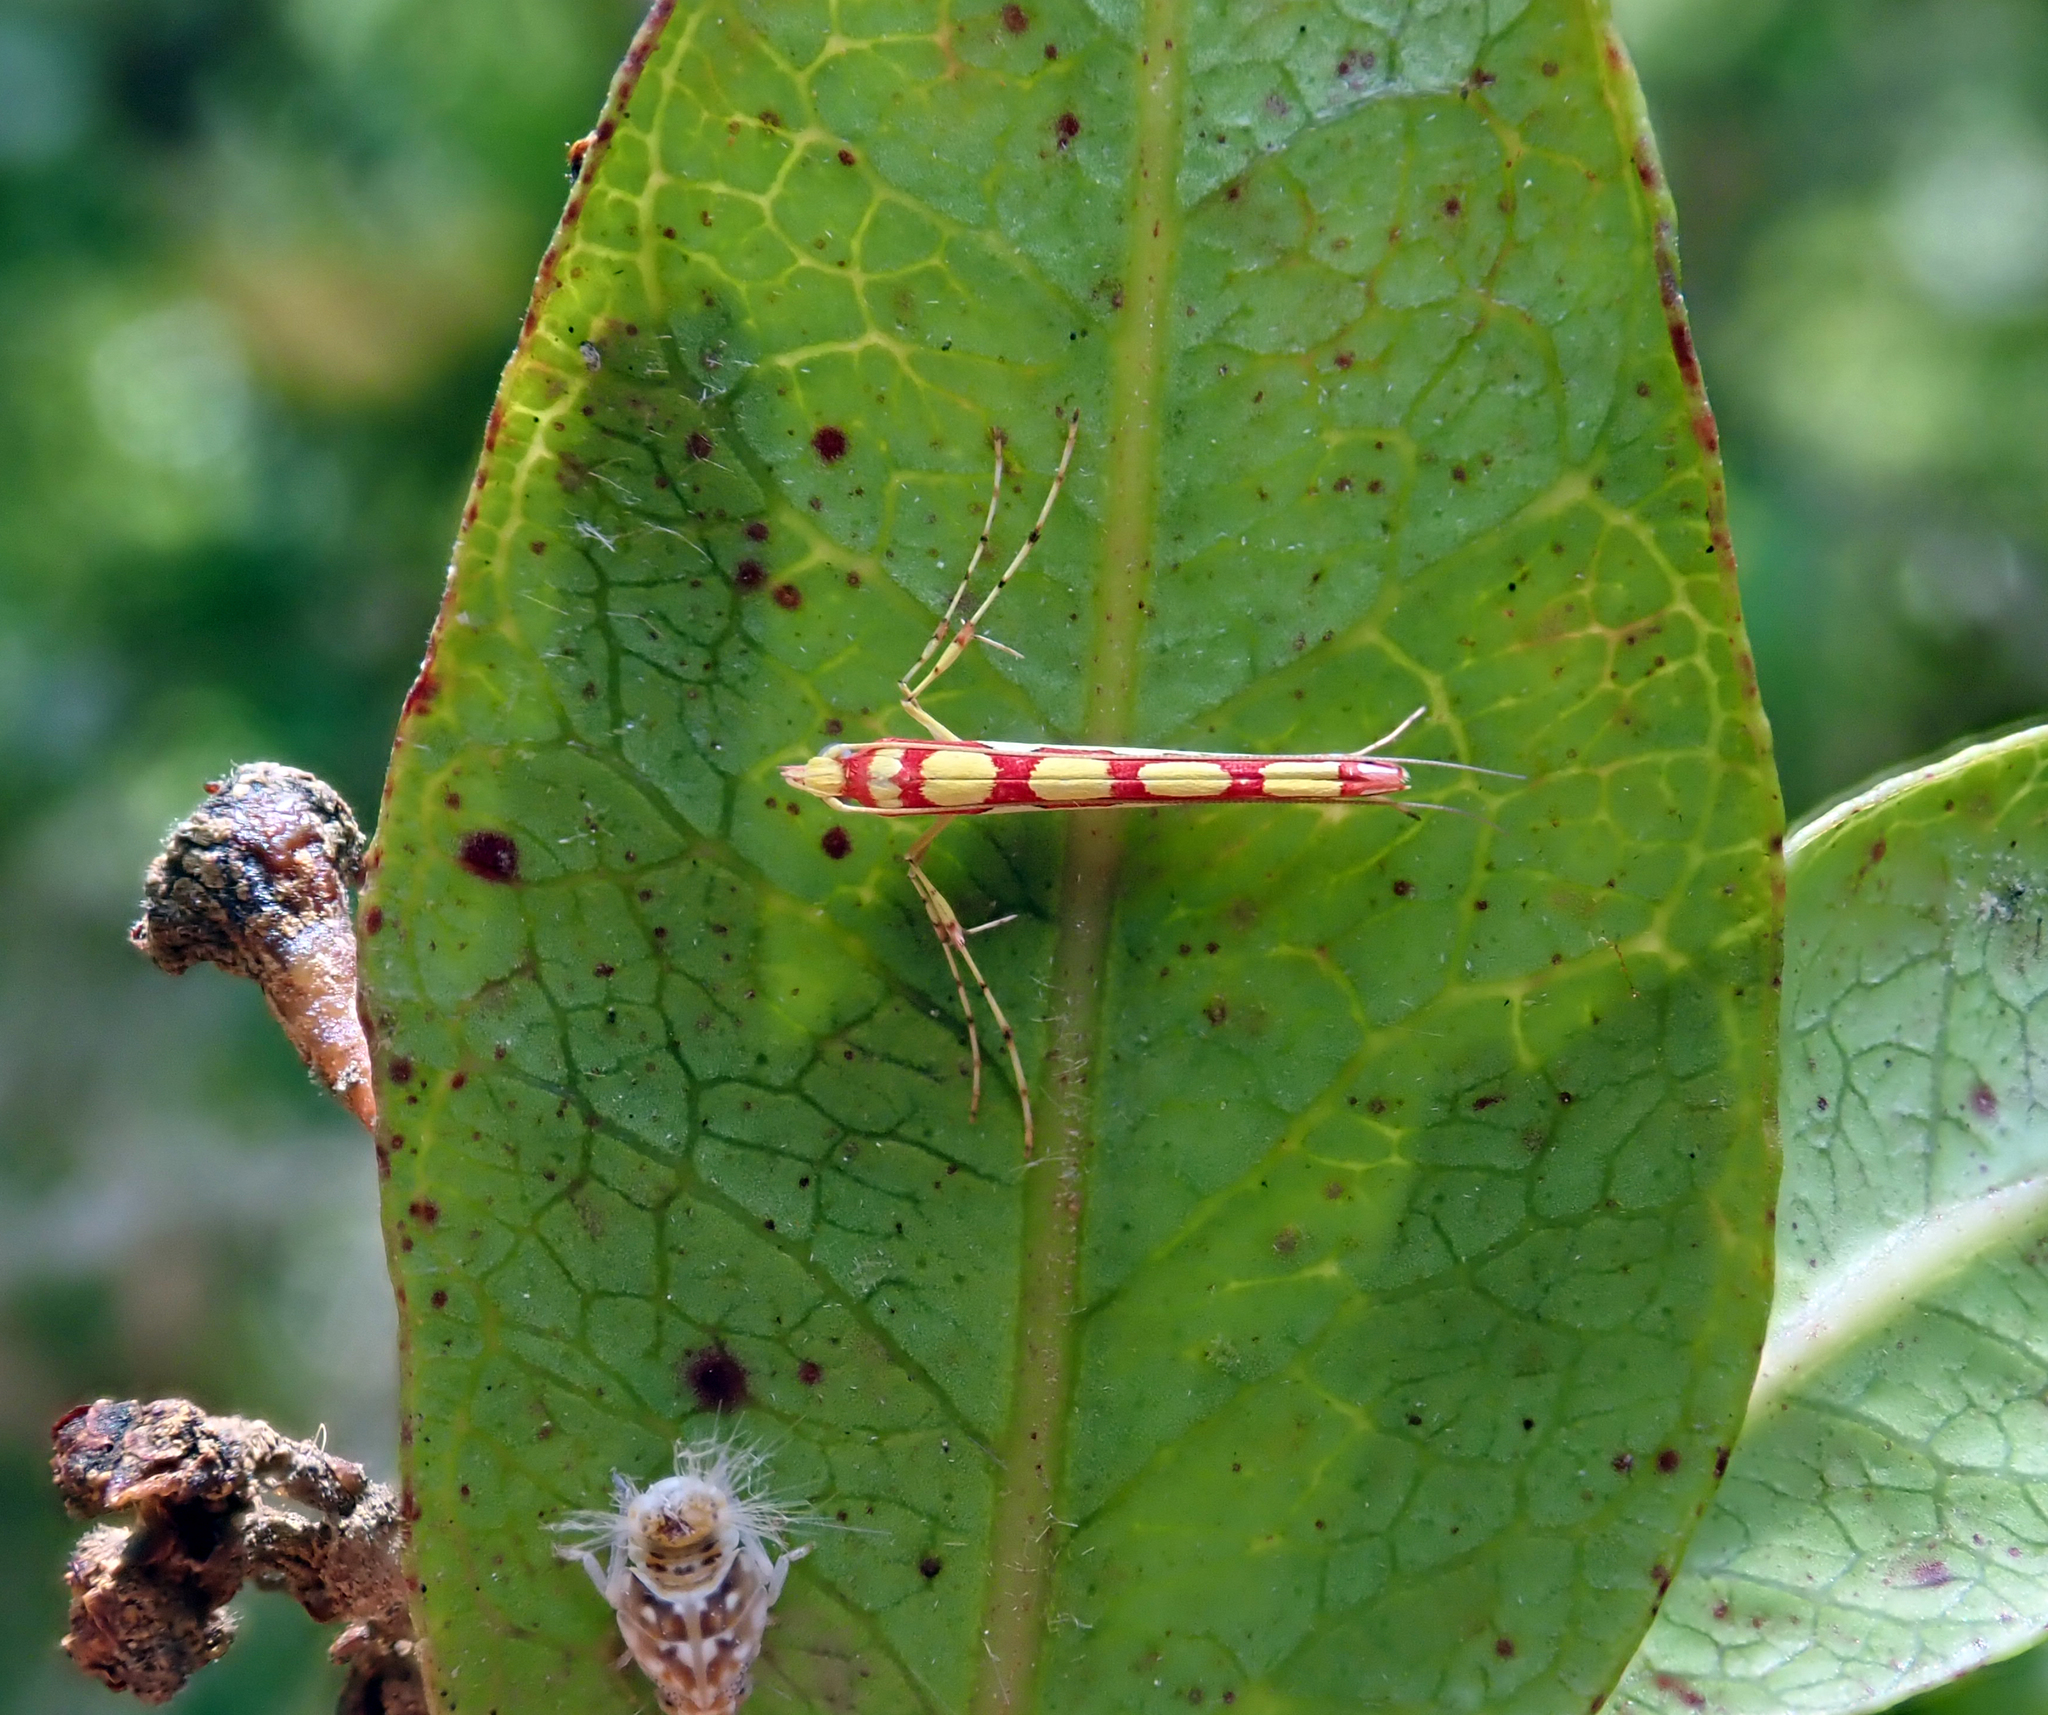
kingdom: Animalia
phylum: Arthropoda
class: Insecta
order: Lepidoptera
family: Gracillariidae
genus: Macarostola
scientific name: Macarostola miniella
